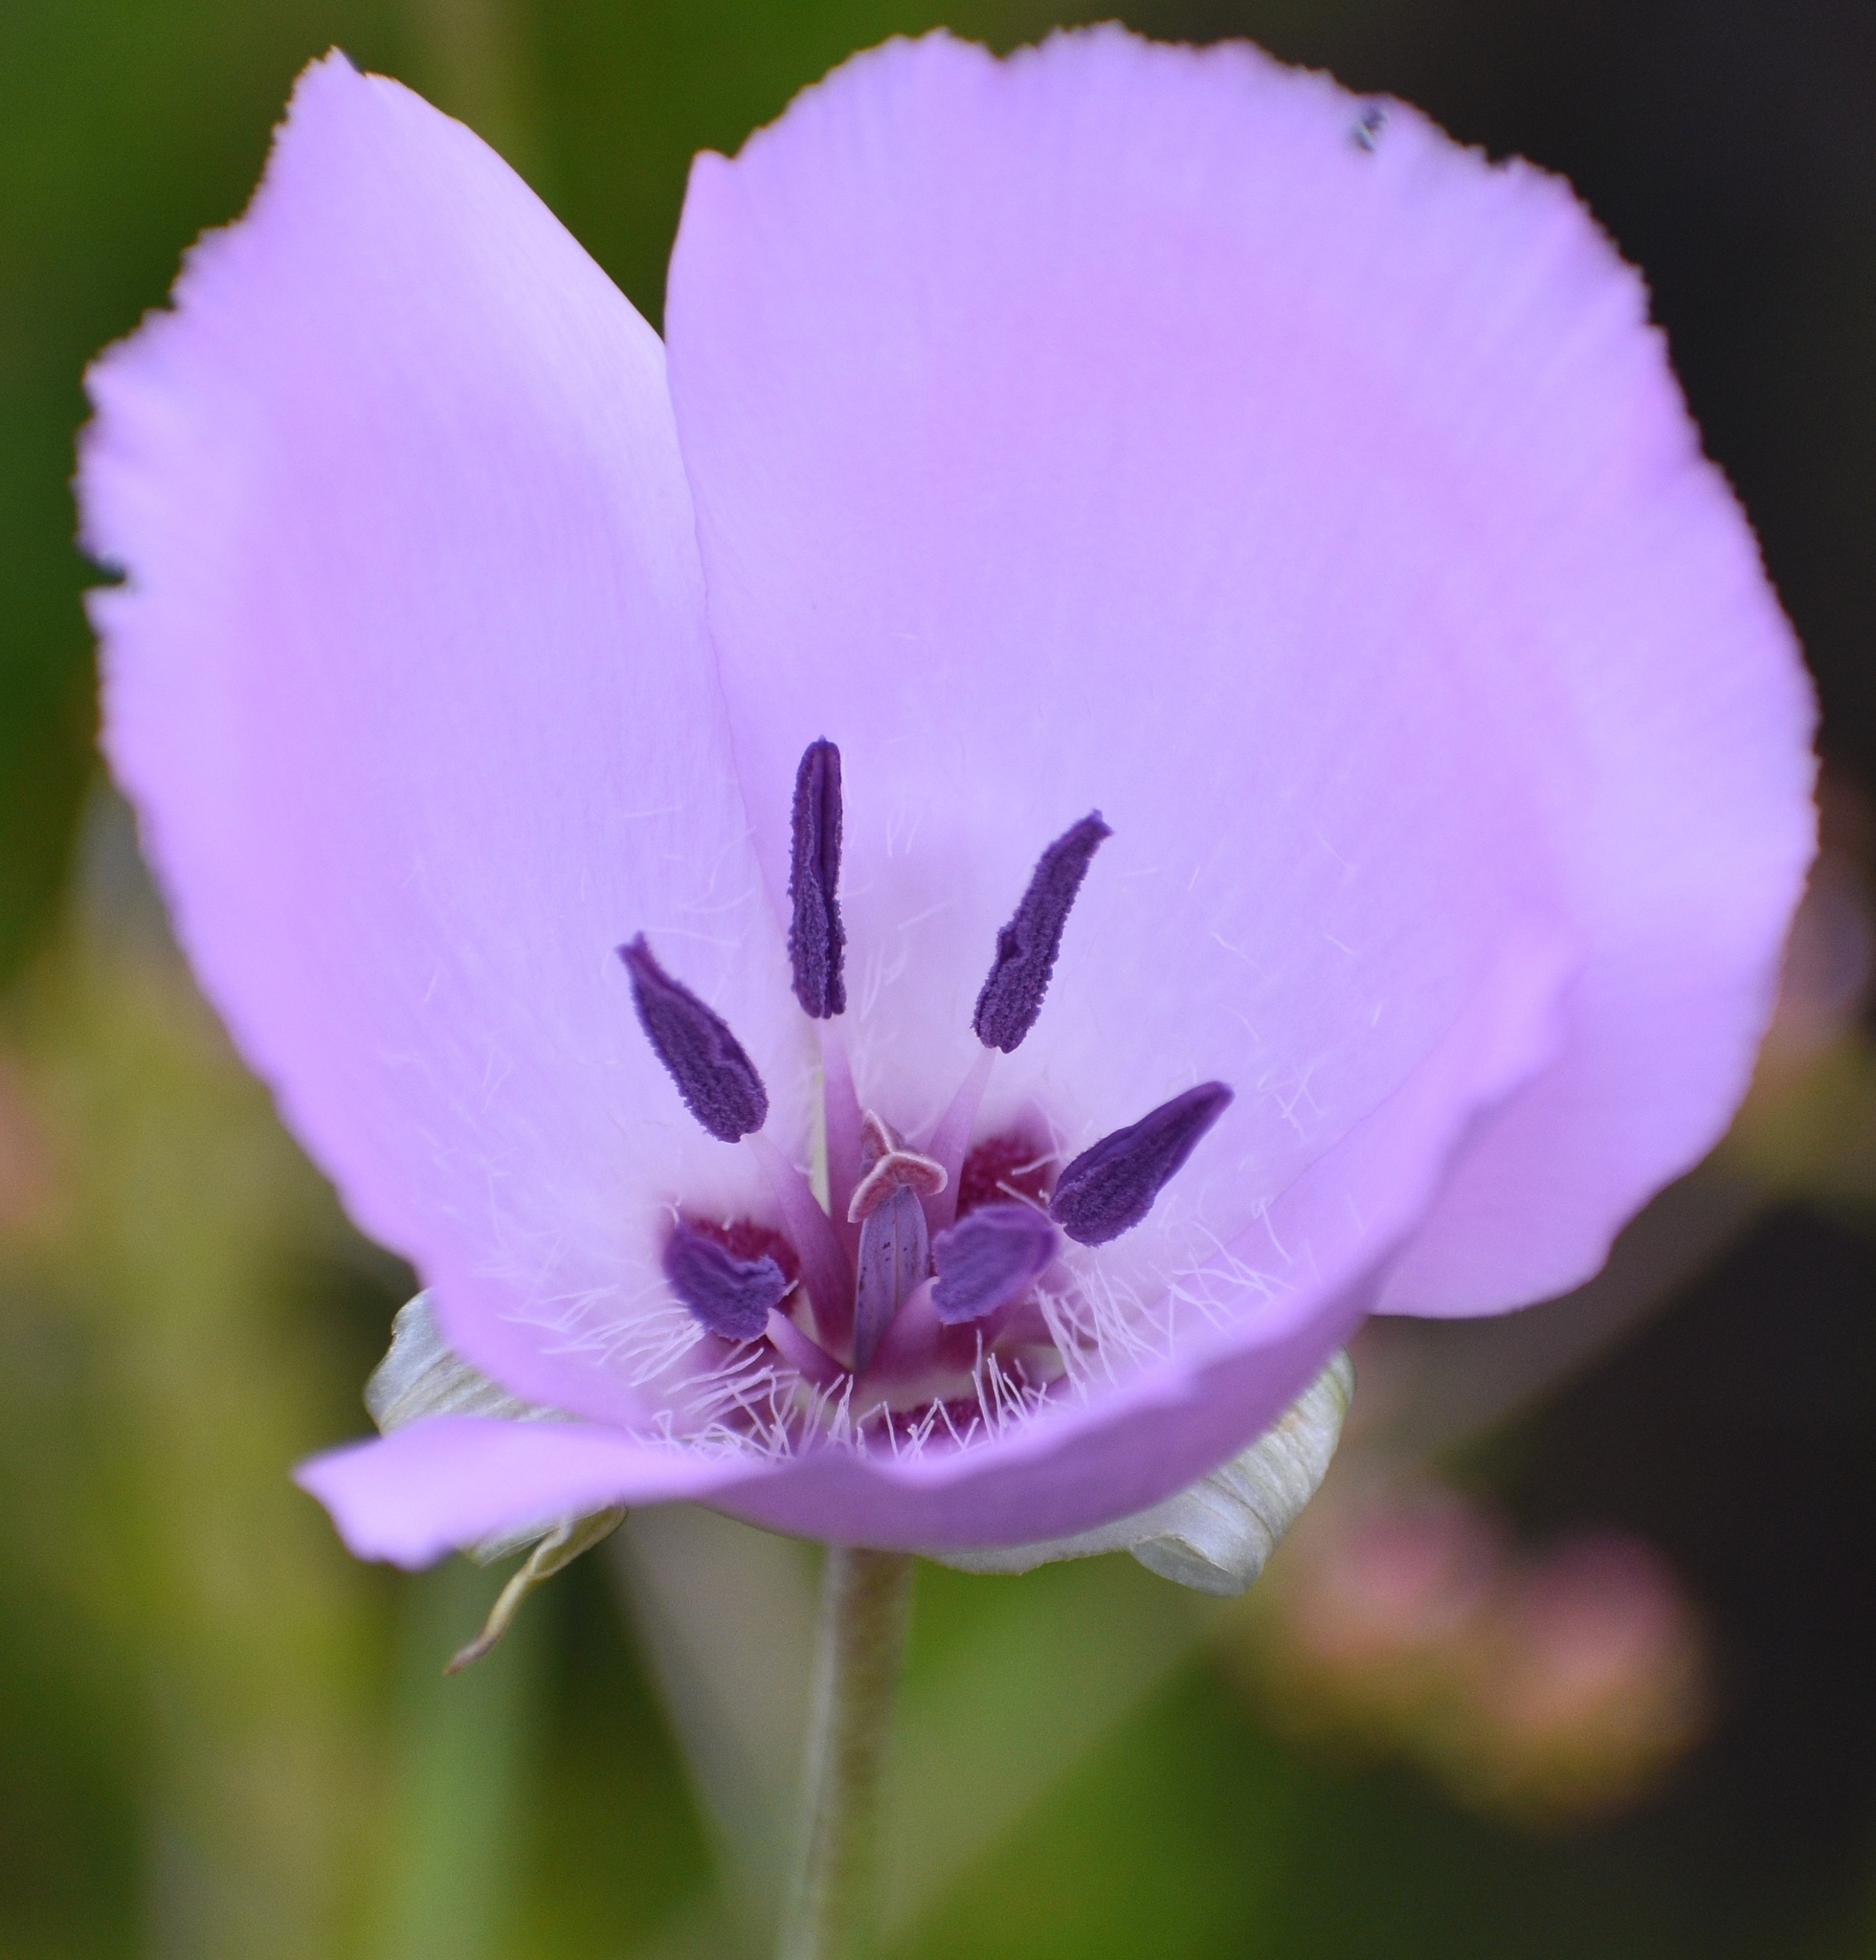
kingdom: Plantae
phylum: Tracheophyta
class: Liliopsida
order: Liliales
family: Liliaceae
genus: Calochortus
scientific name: Calochortus splendens
